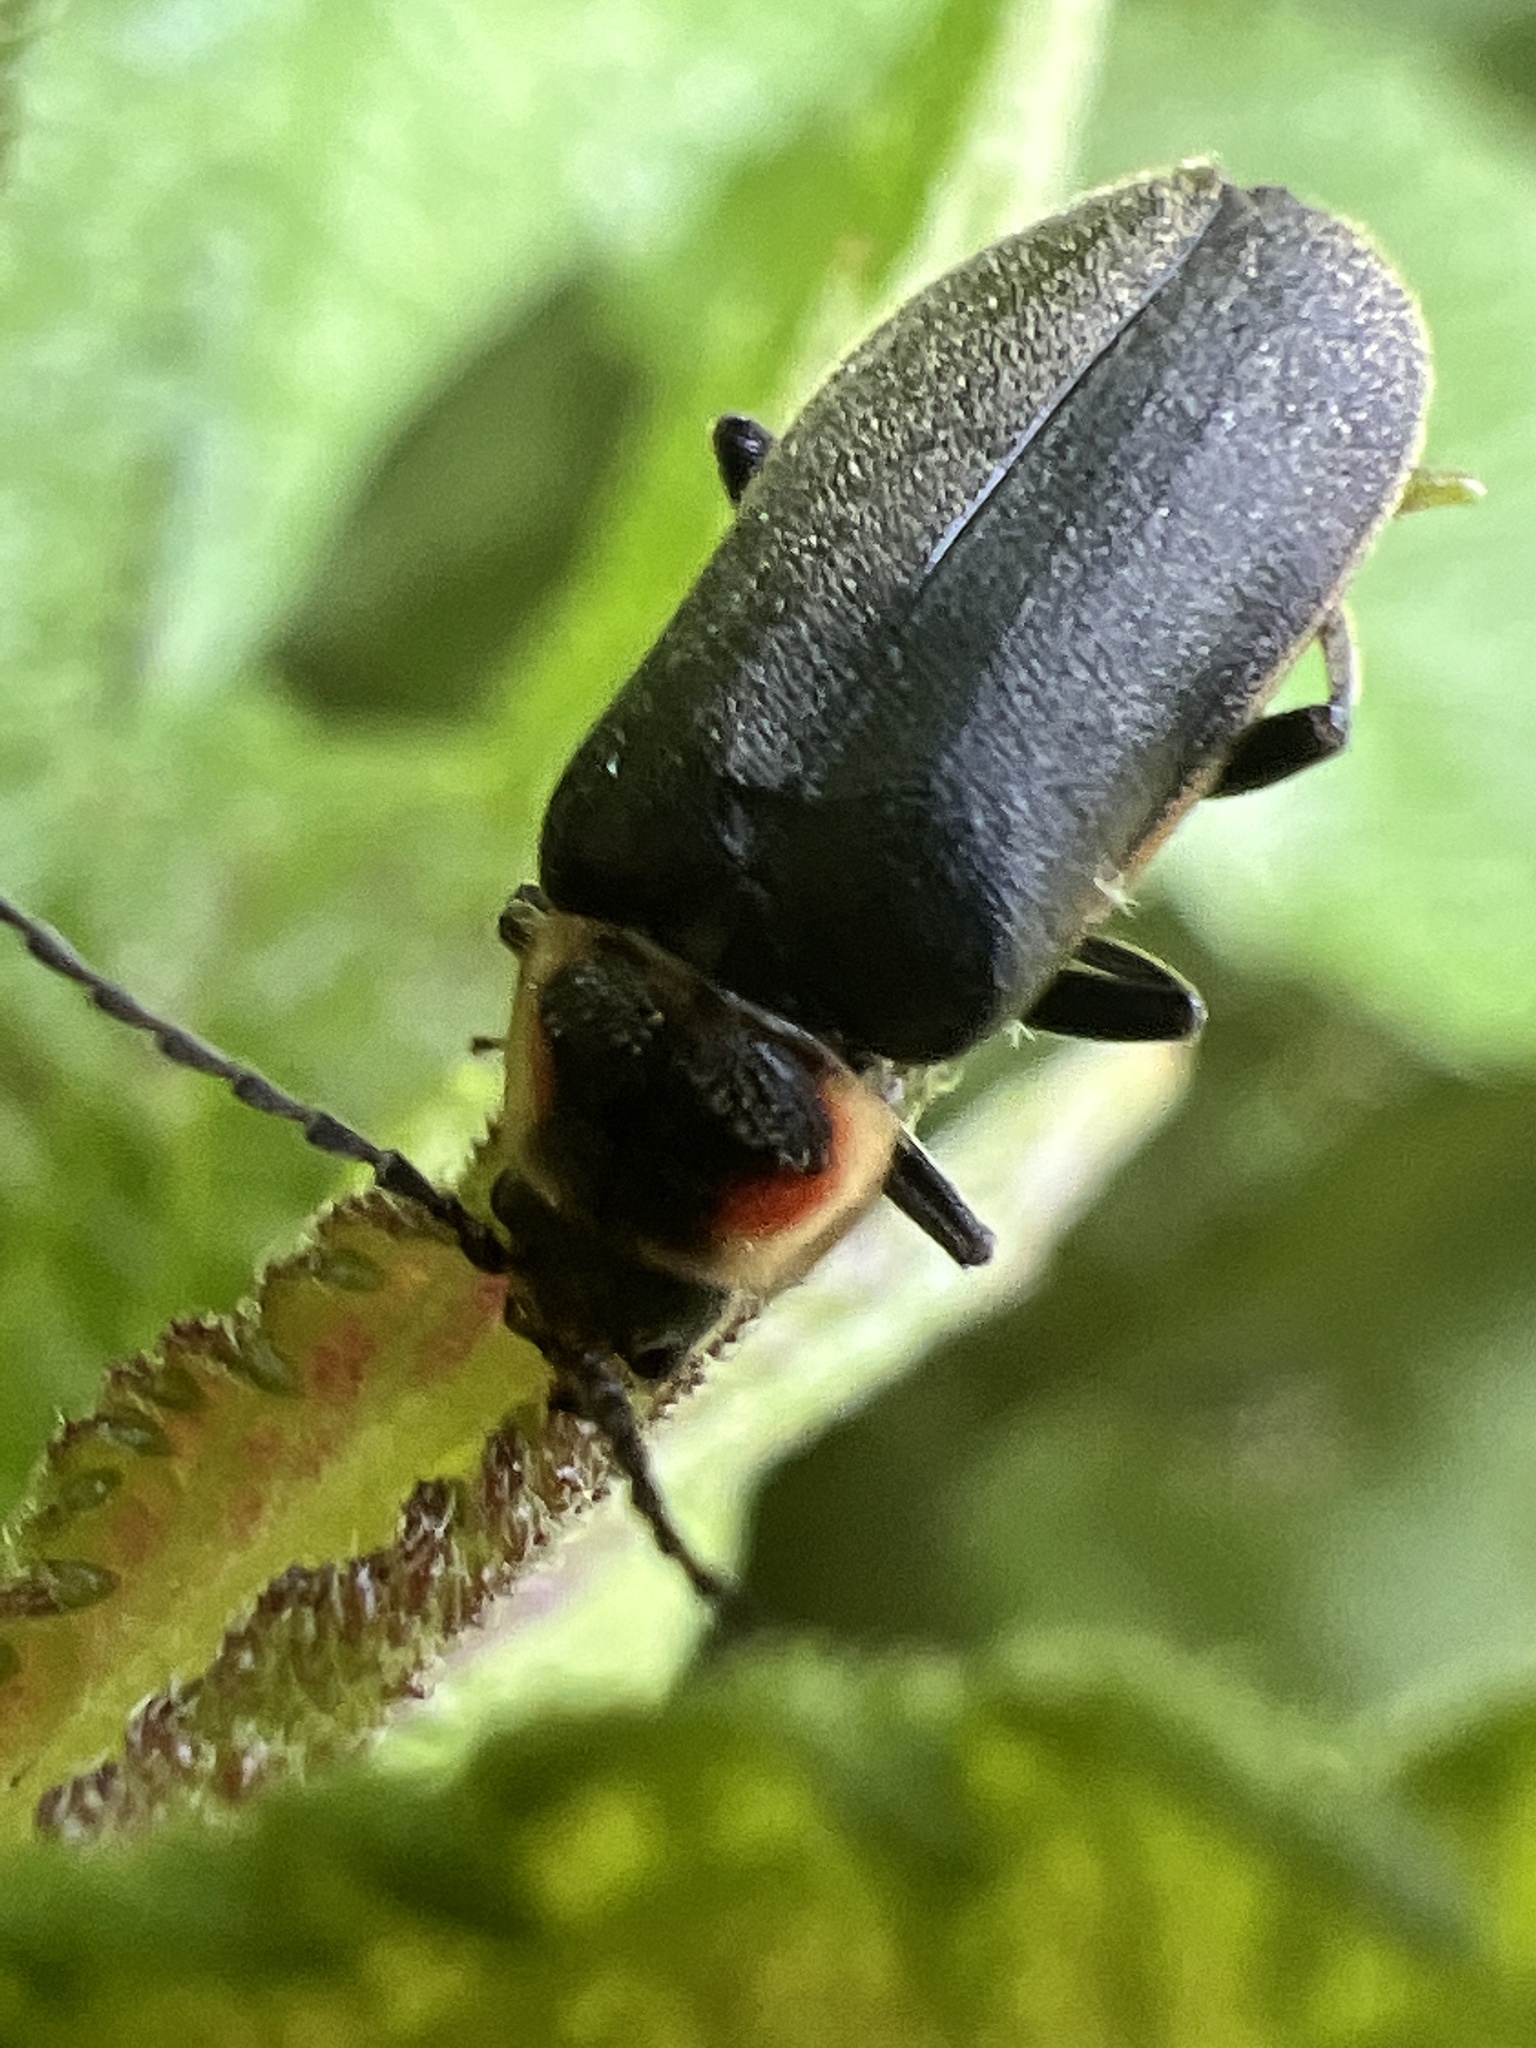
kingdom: Animalia
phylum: Arthropoda
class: Insecta
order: Coleoptera
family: Cantharidae
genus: Atalantycha
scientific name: Atalantycha dentigera
